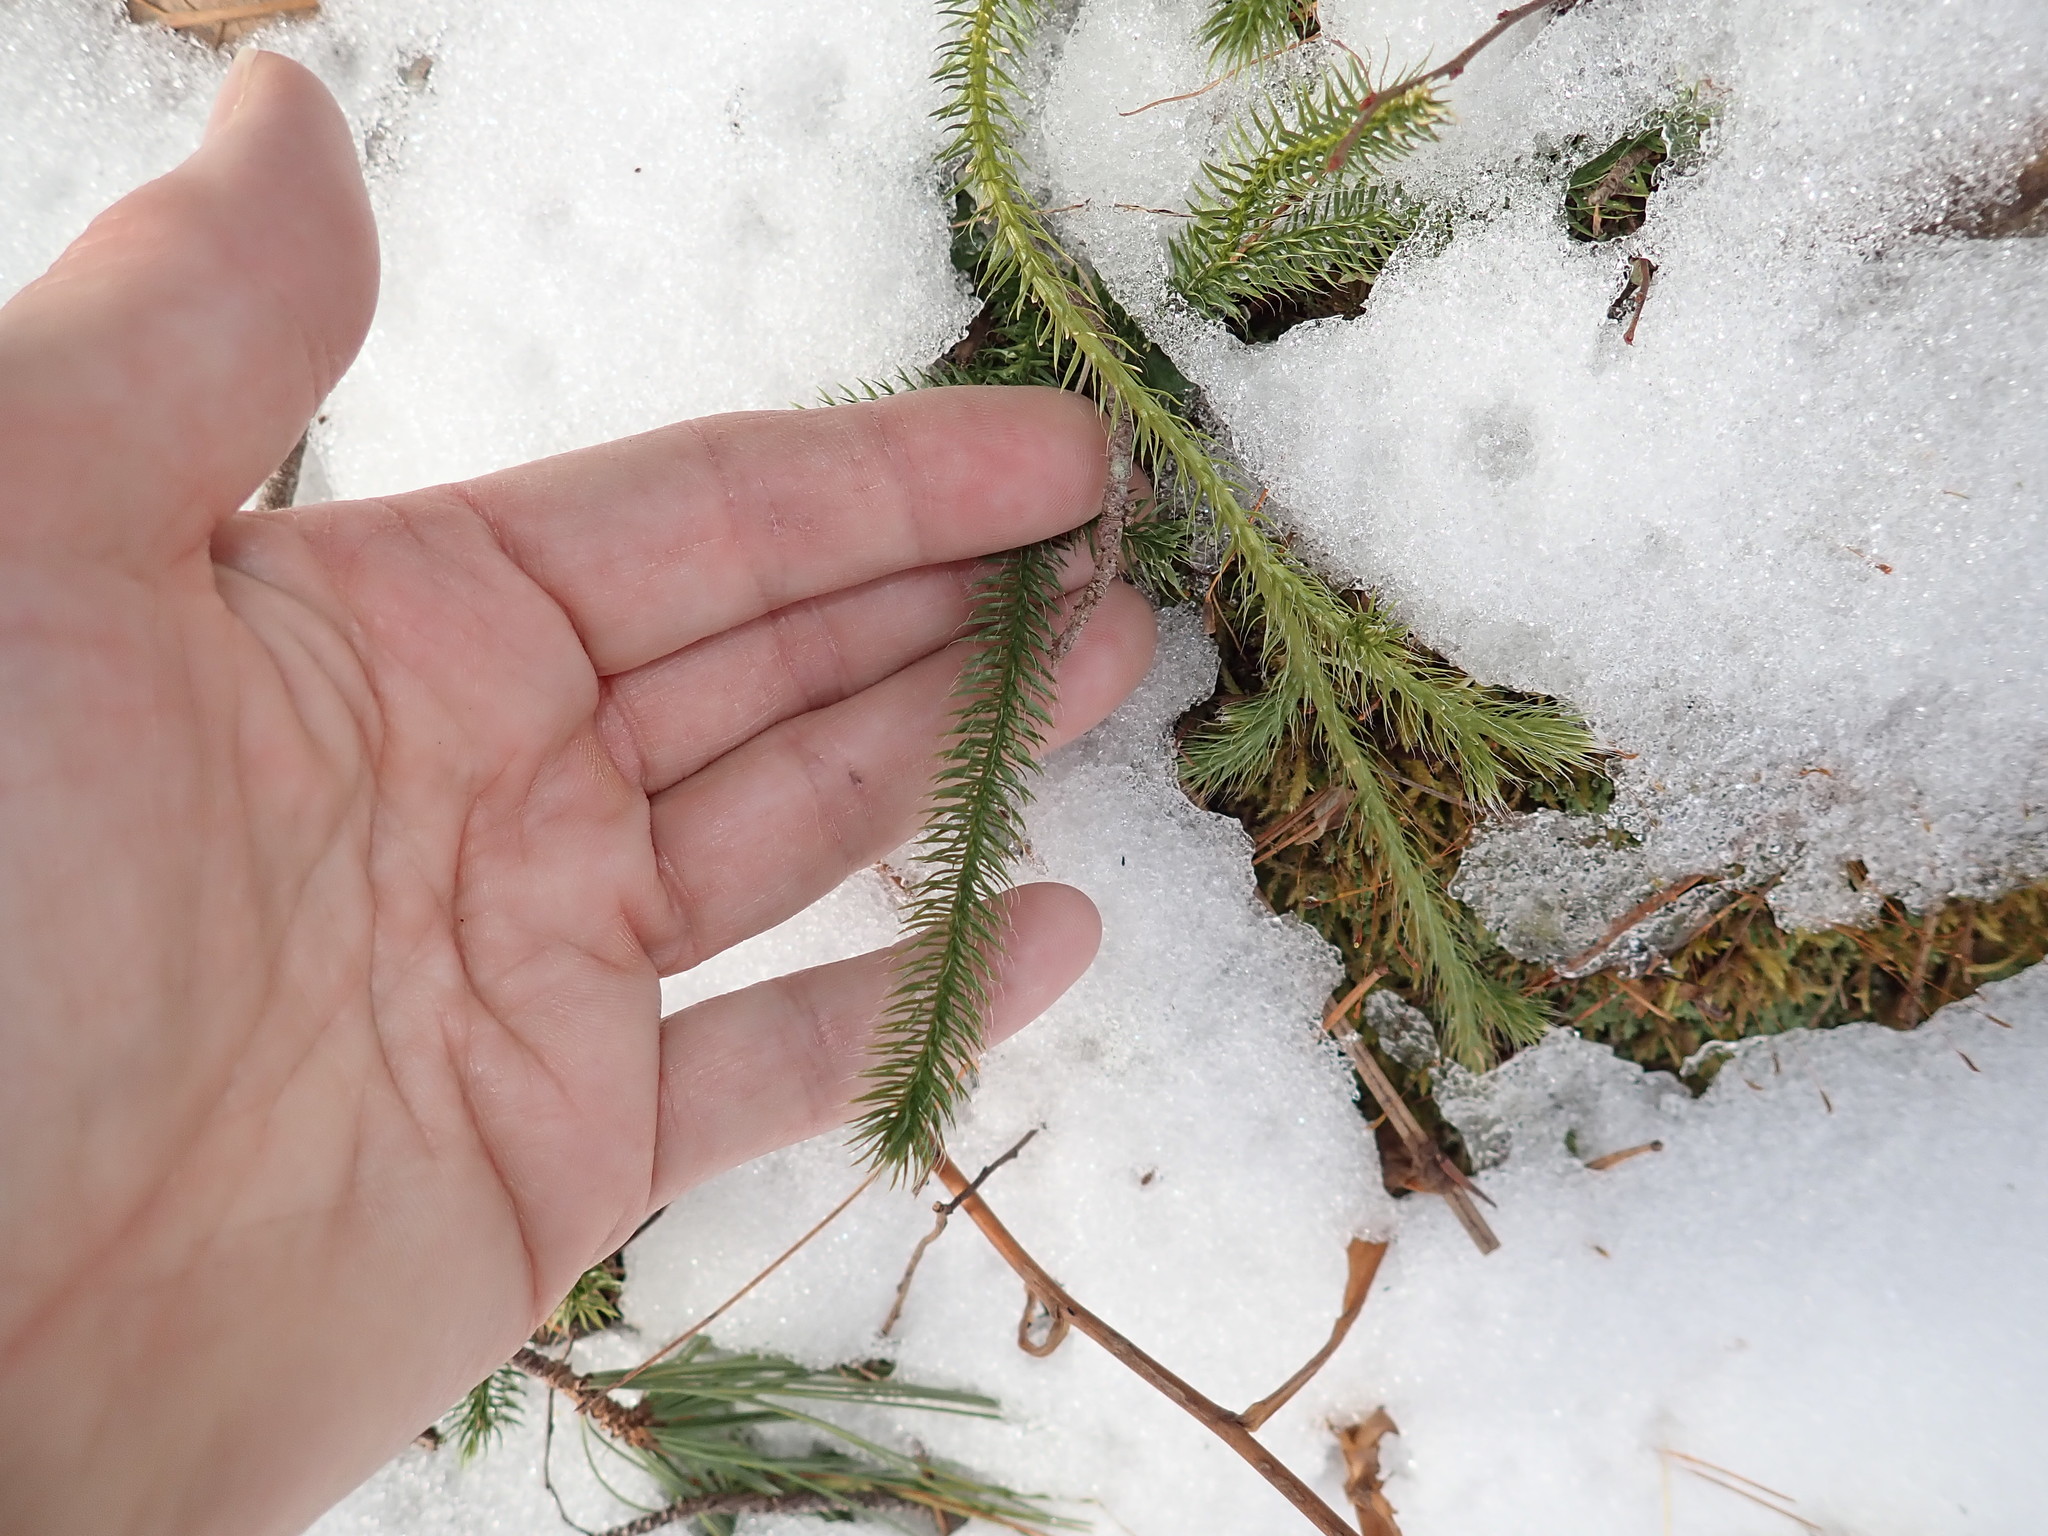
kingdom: Plantae
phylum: Tracheophyta
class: Lycopodiopsida
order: Lycopodiales
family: Lycopodiaceae
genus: Lycopodium
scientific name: Lycopodium clavatum
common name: Stag's-horn clubmoss
